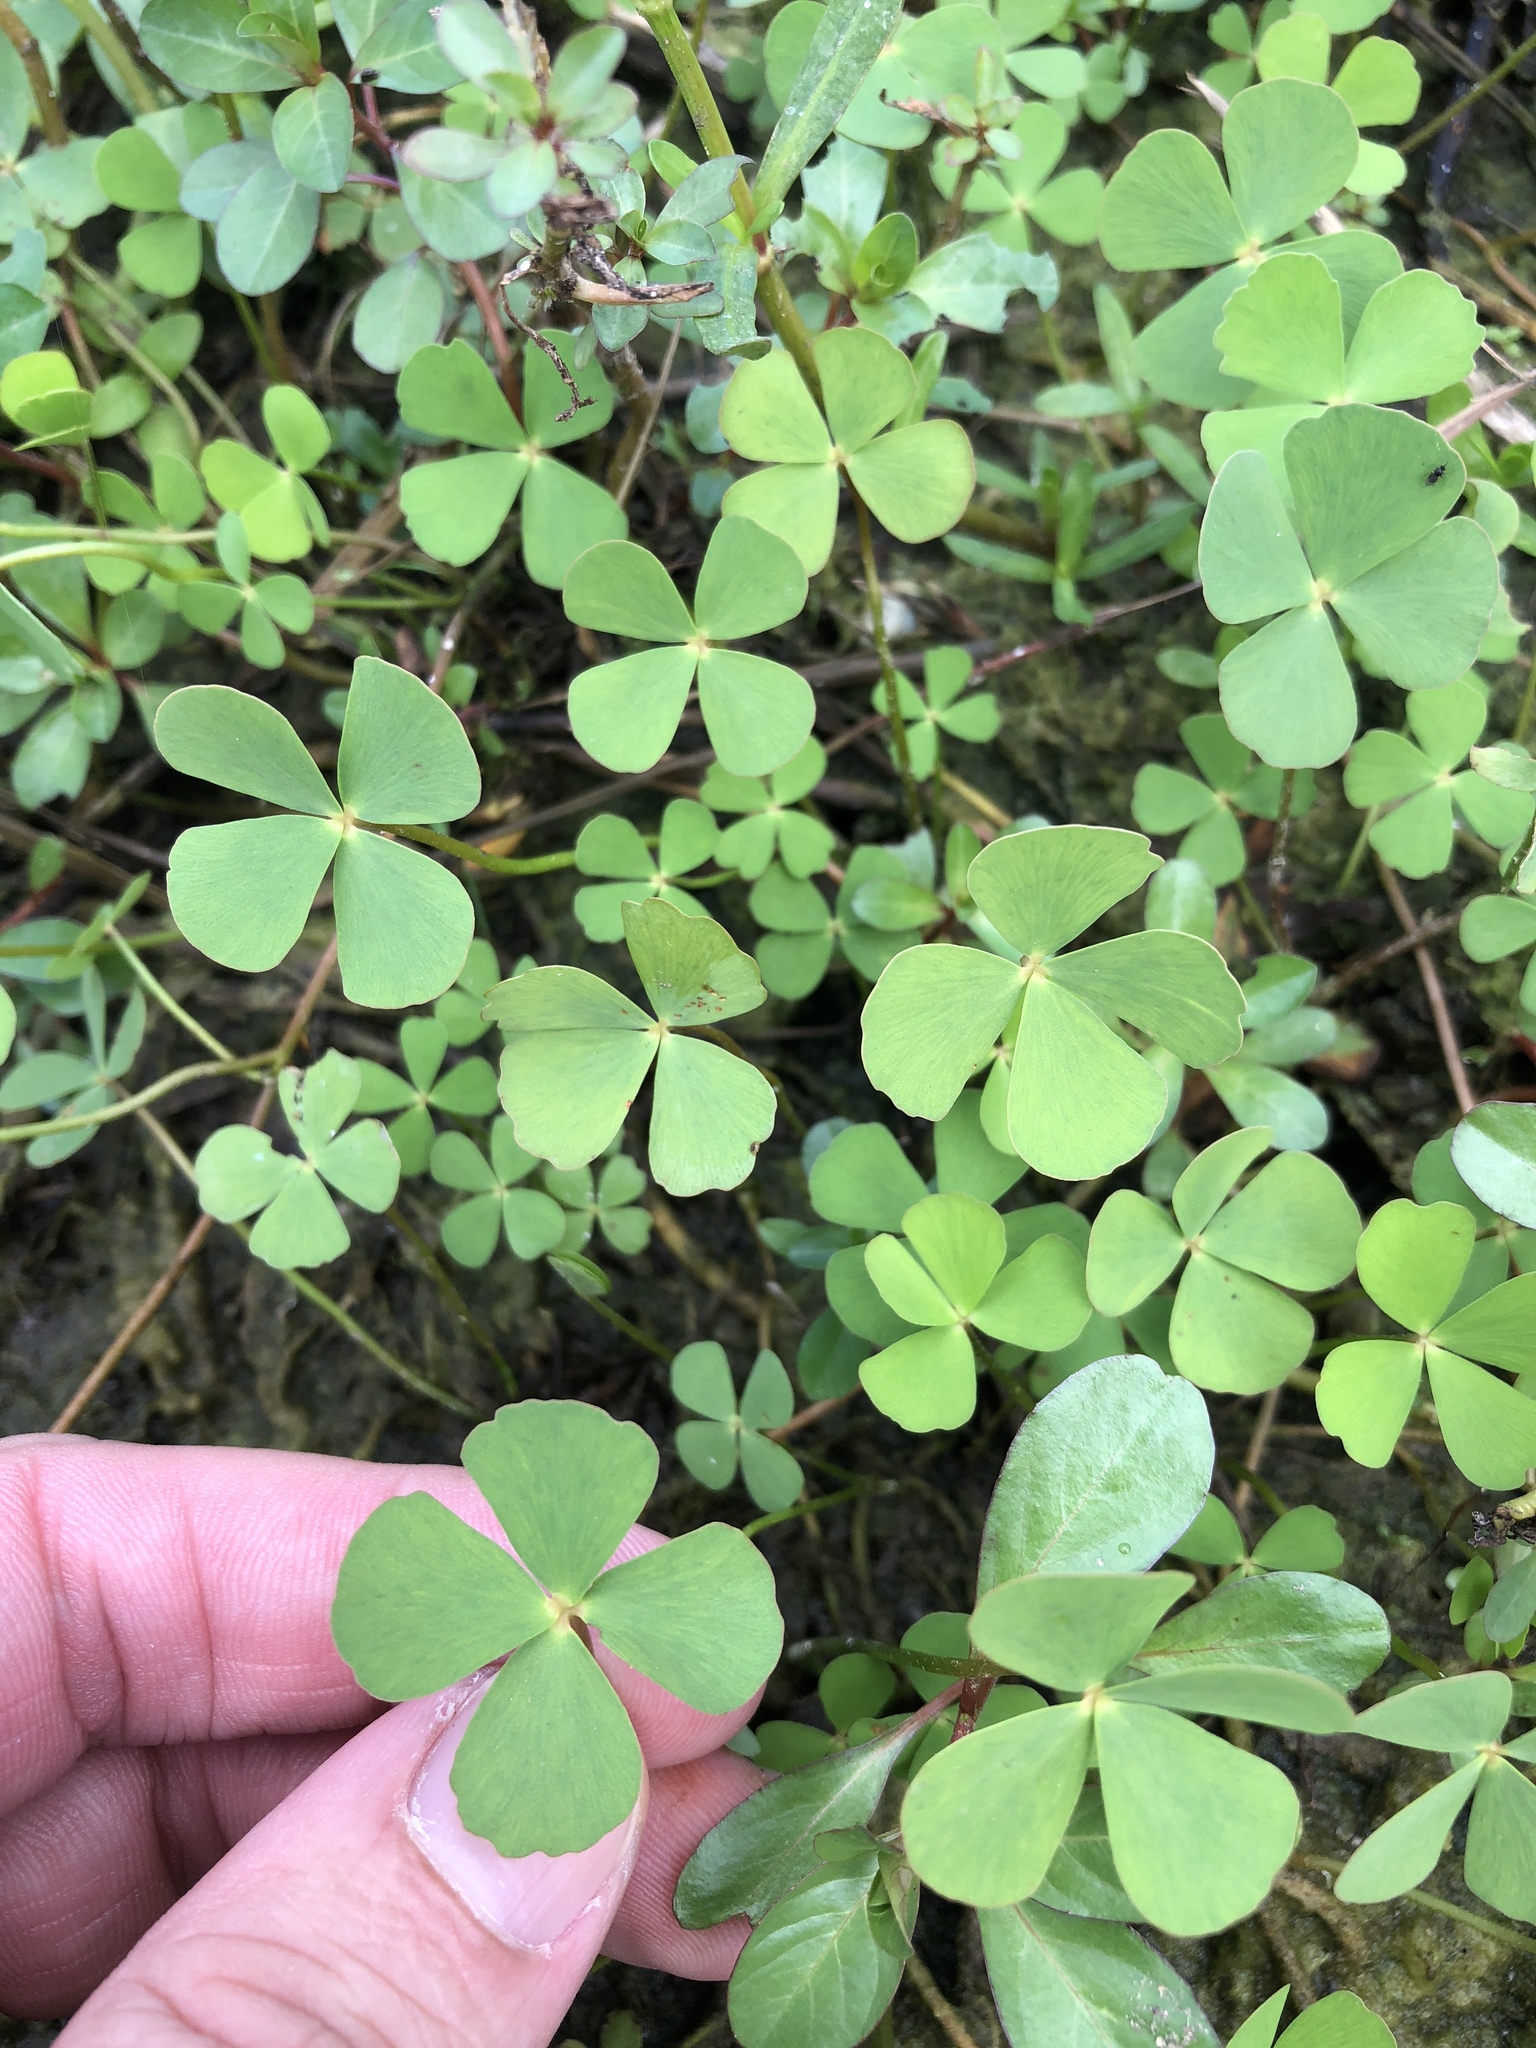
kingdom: Plantae
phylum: Tracheophyta
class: Polypodiopsida
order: Salviniales
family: Marsileaceae
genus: Marsilea
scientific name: Marsilea vestita
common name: Hooked-pepperwort
